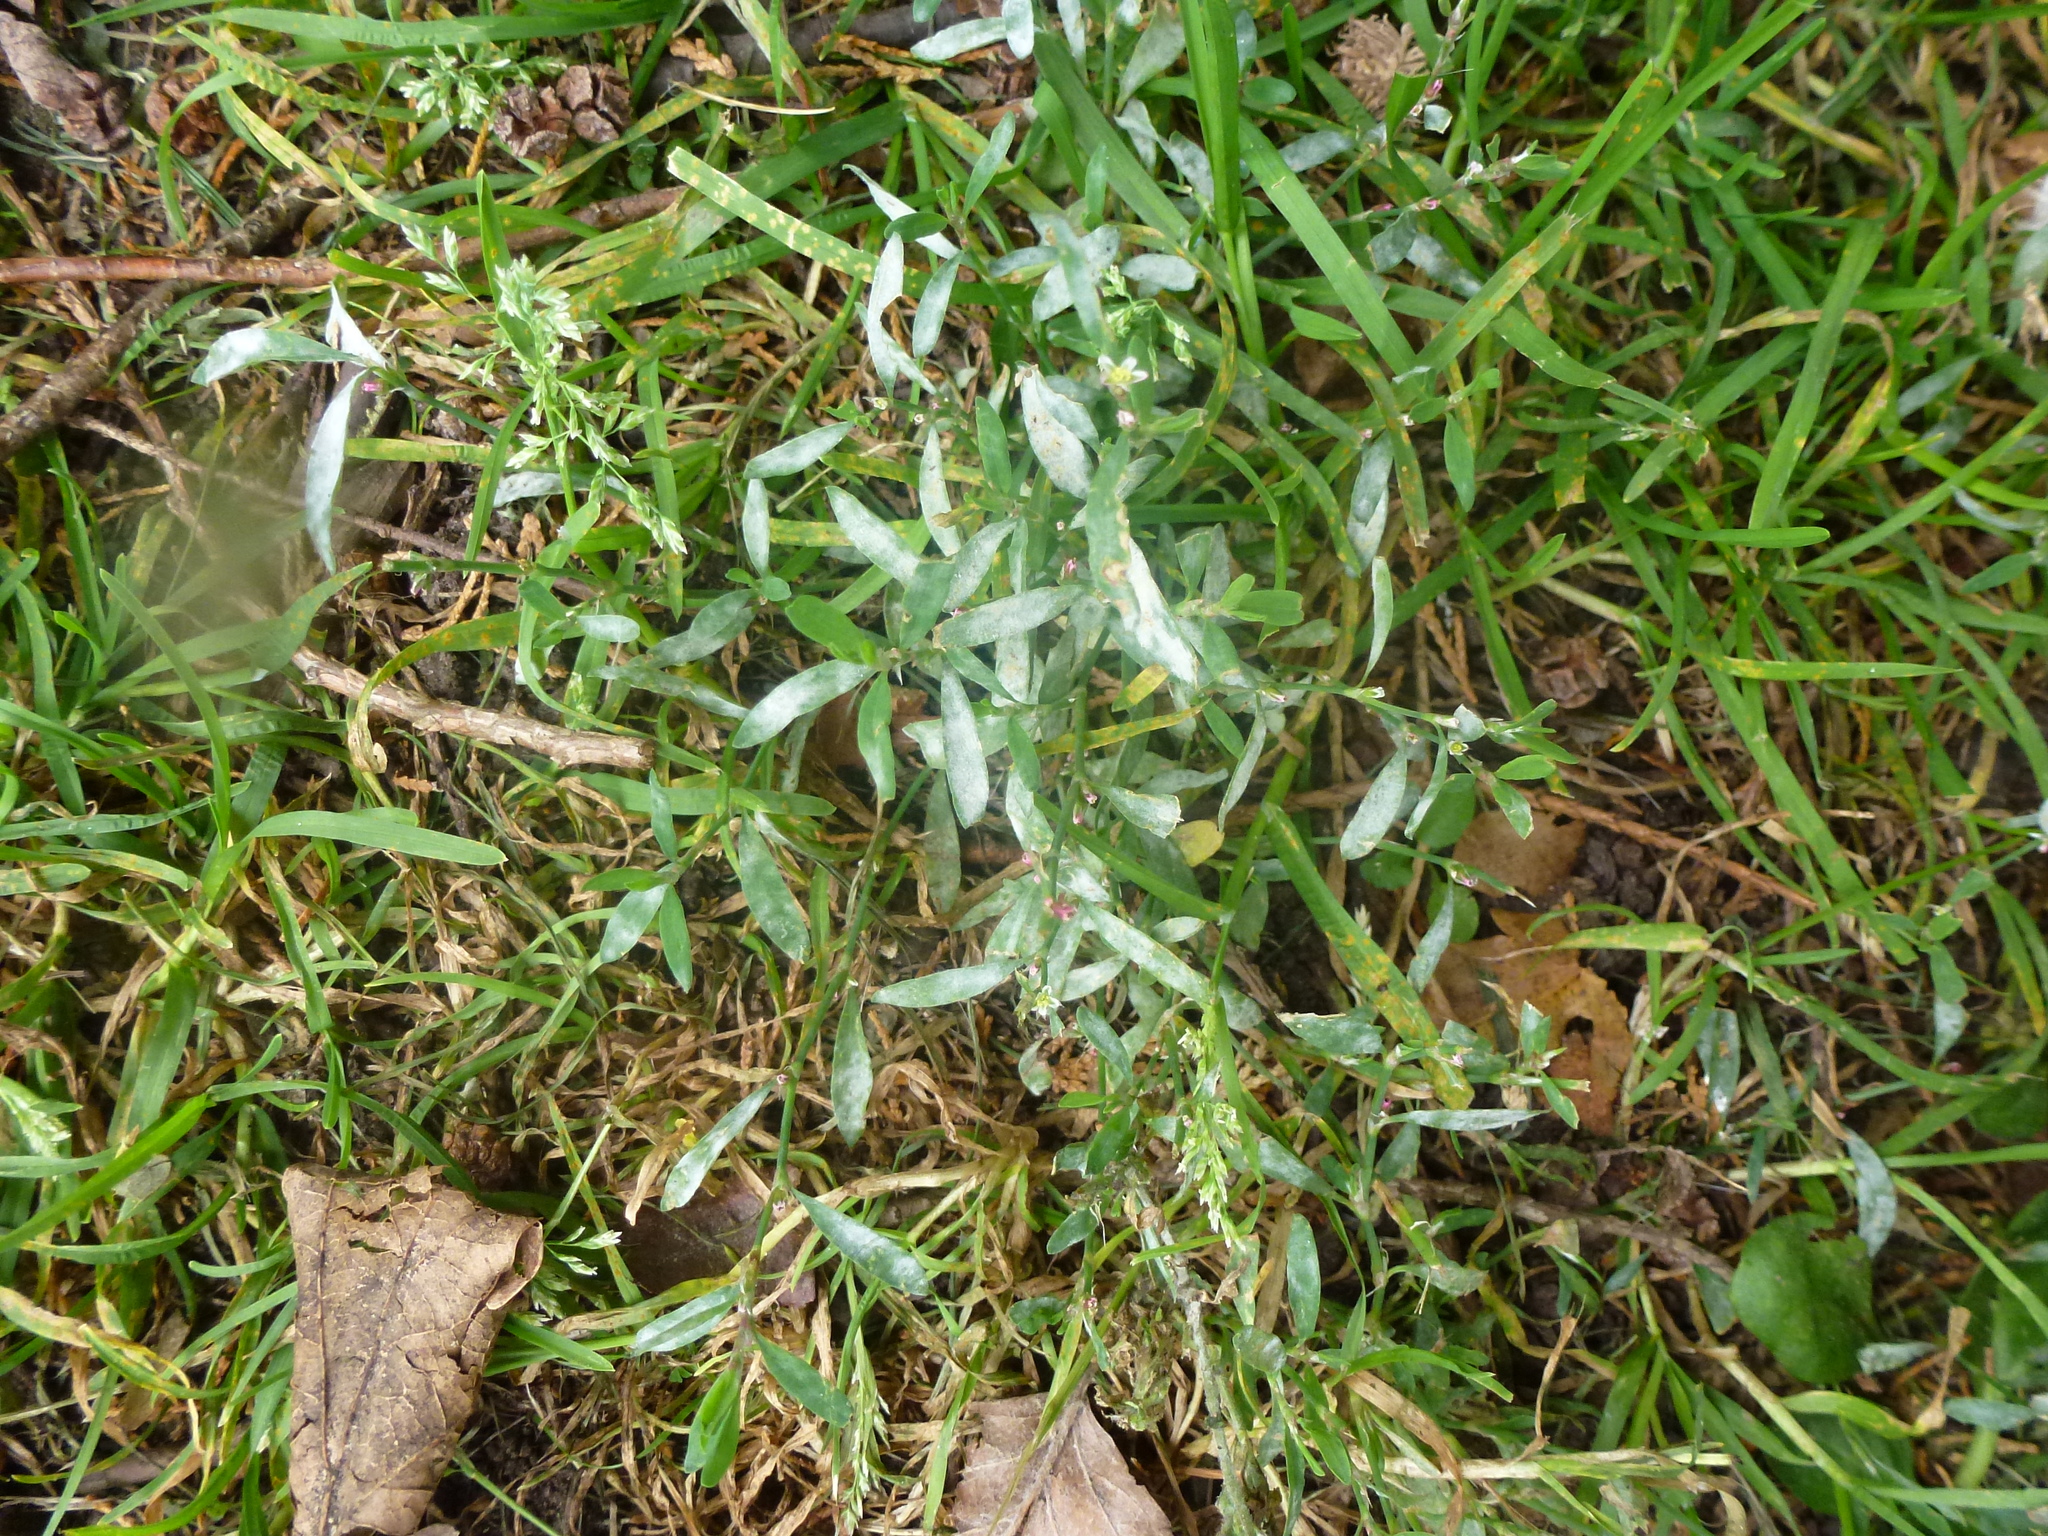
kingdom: Plantae
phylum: Tracheophyta
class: Magnoliopsida
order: Caryophyllales
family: Polygonaceae
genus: Polygonum
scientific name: Polygonum aviculare
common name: Prostrate knotweed
